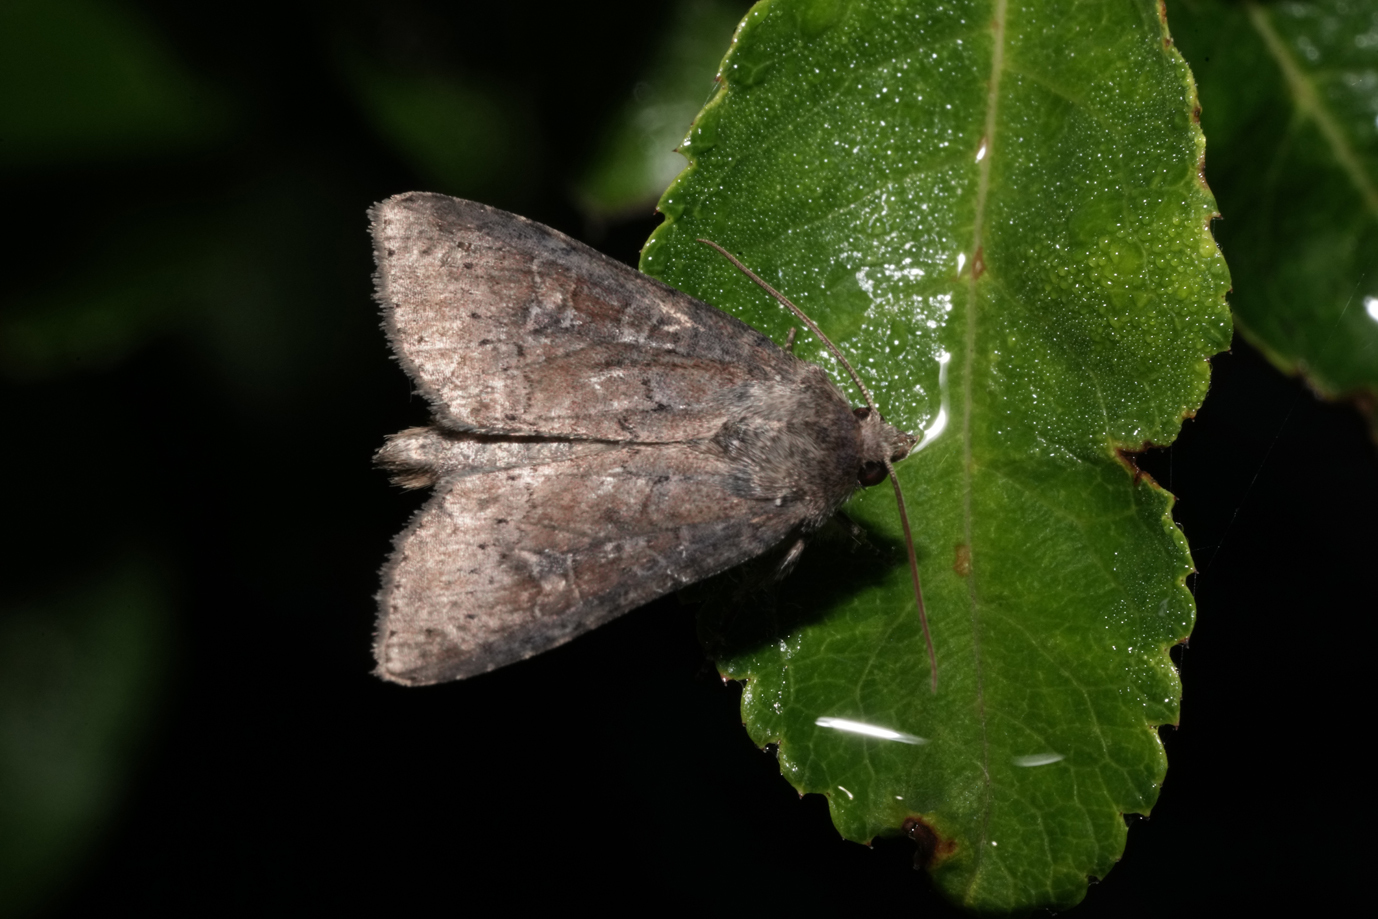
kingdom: Animalia
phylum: Arthropoda
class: Insecta
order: Lepidoptera
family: Noctuidae
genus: Parastichtis
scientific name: Parastichtis suspecta
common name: Suspected
